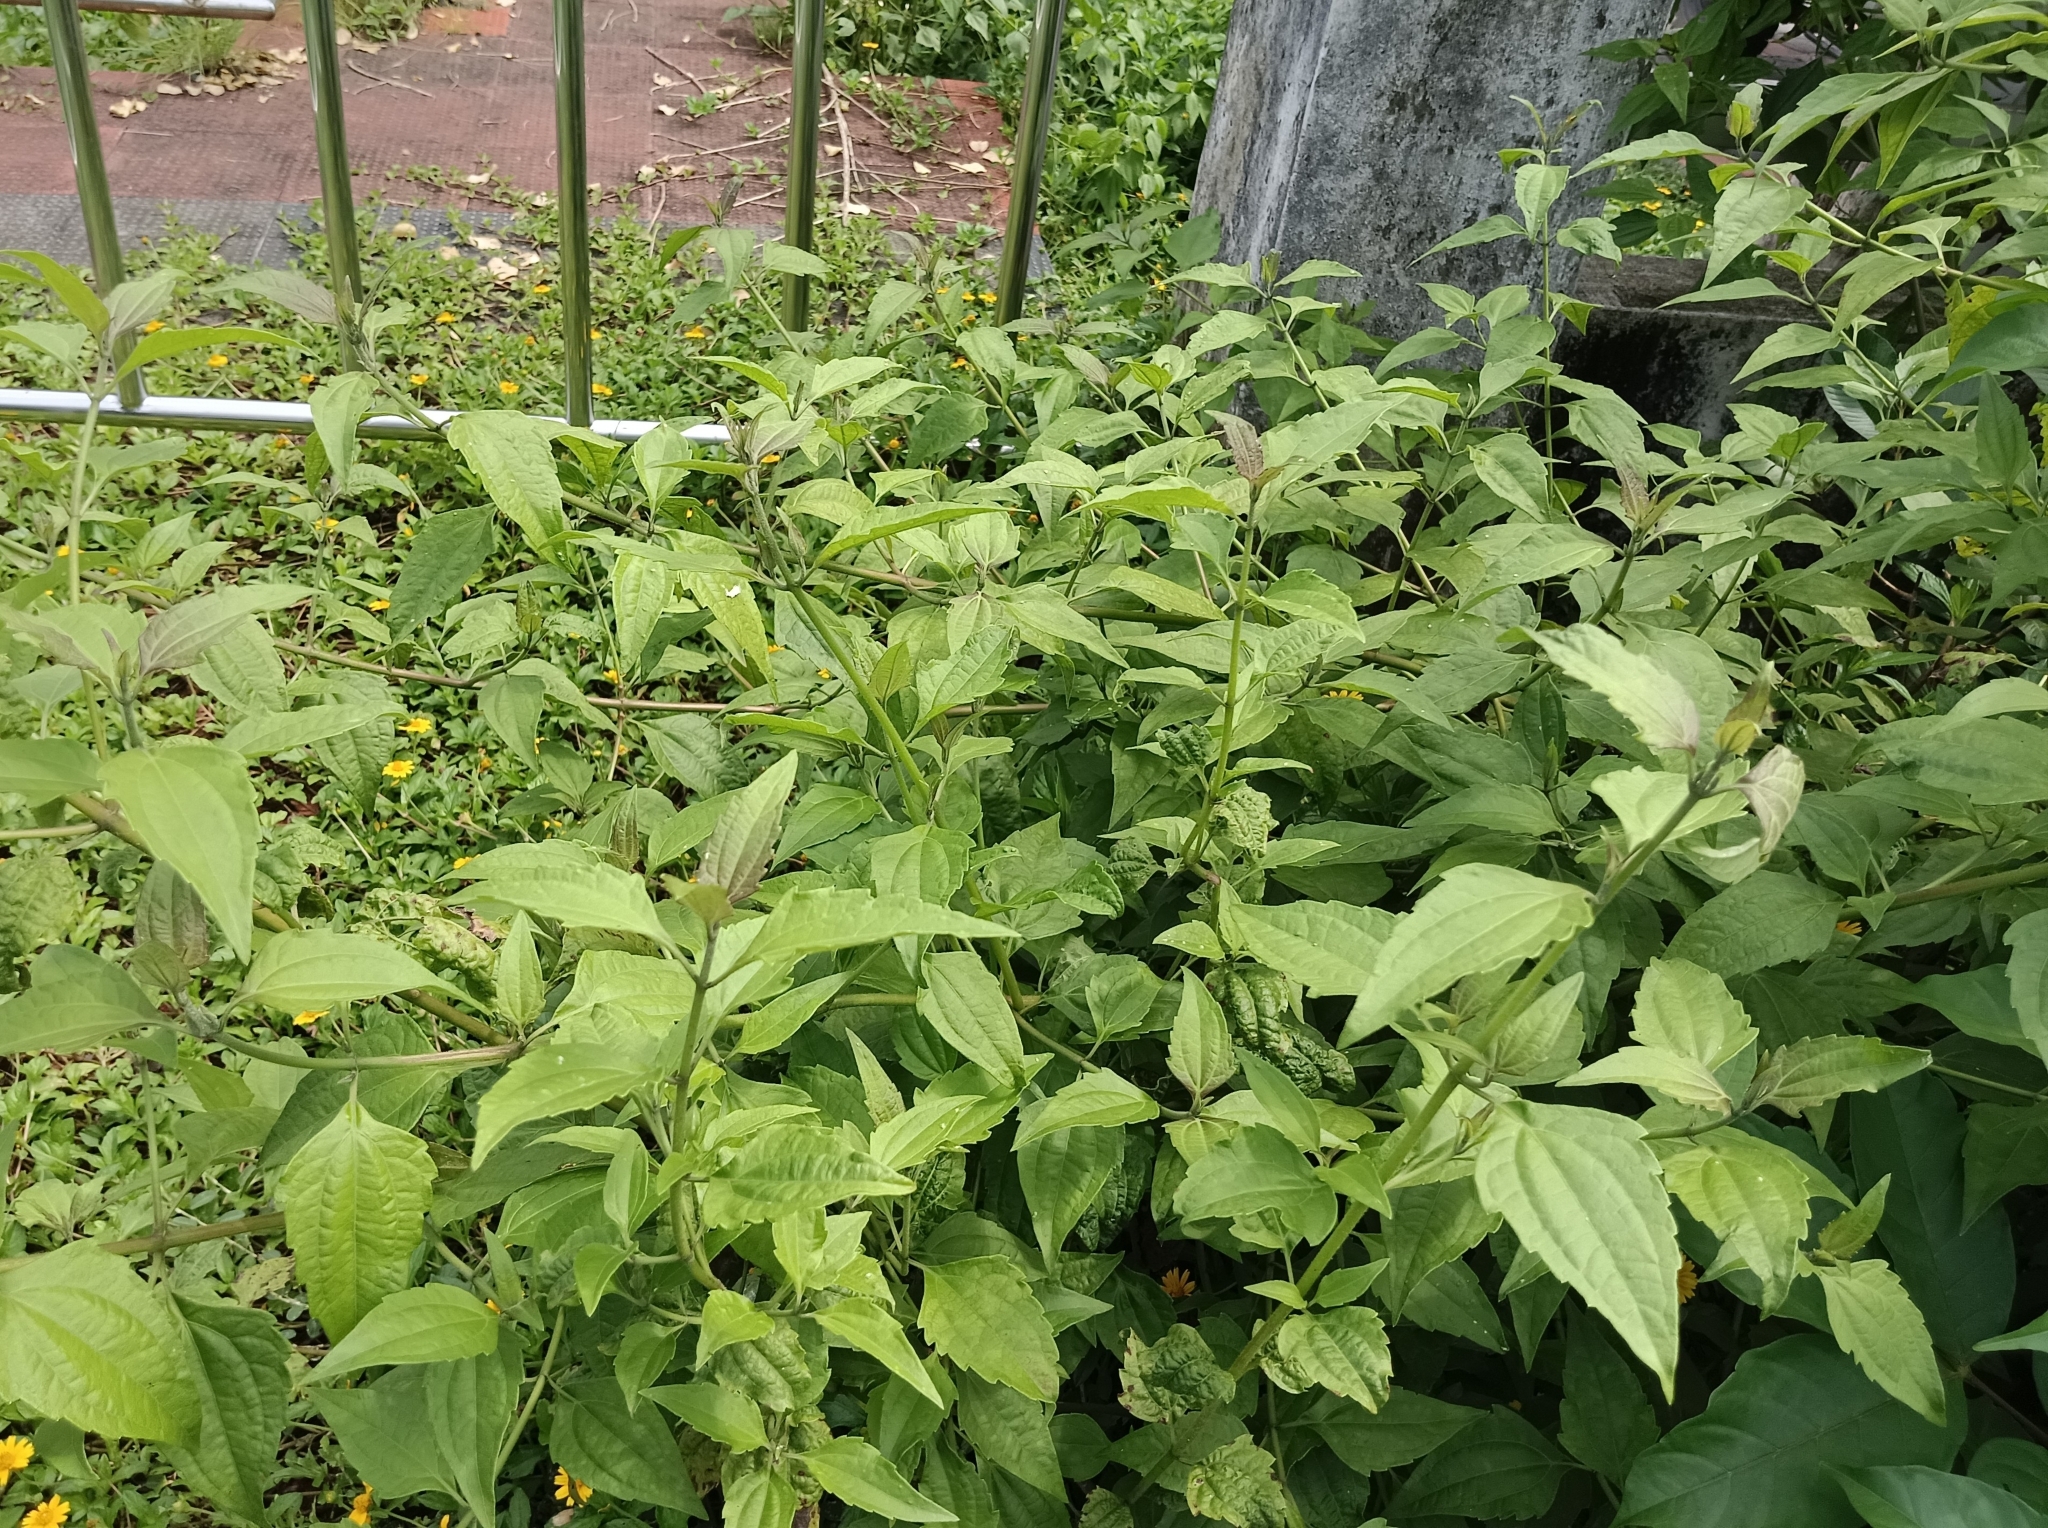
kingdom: Plantae
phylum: Tracheophyta
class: Magnoliopsida
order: Asterales
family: Asteraceae
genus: Chromolaena
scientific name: Chromolaena odorata
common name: Siamweed
